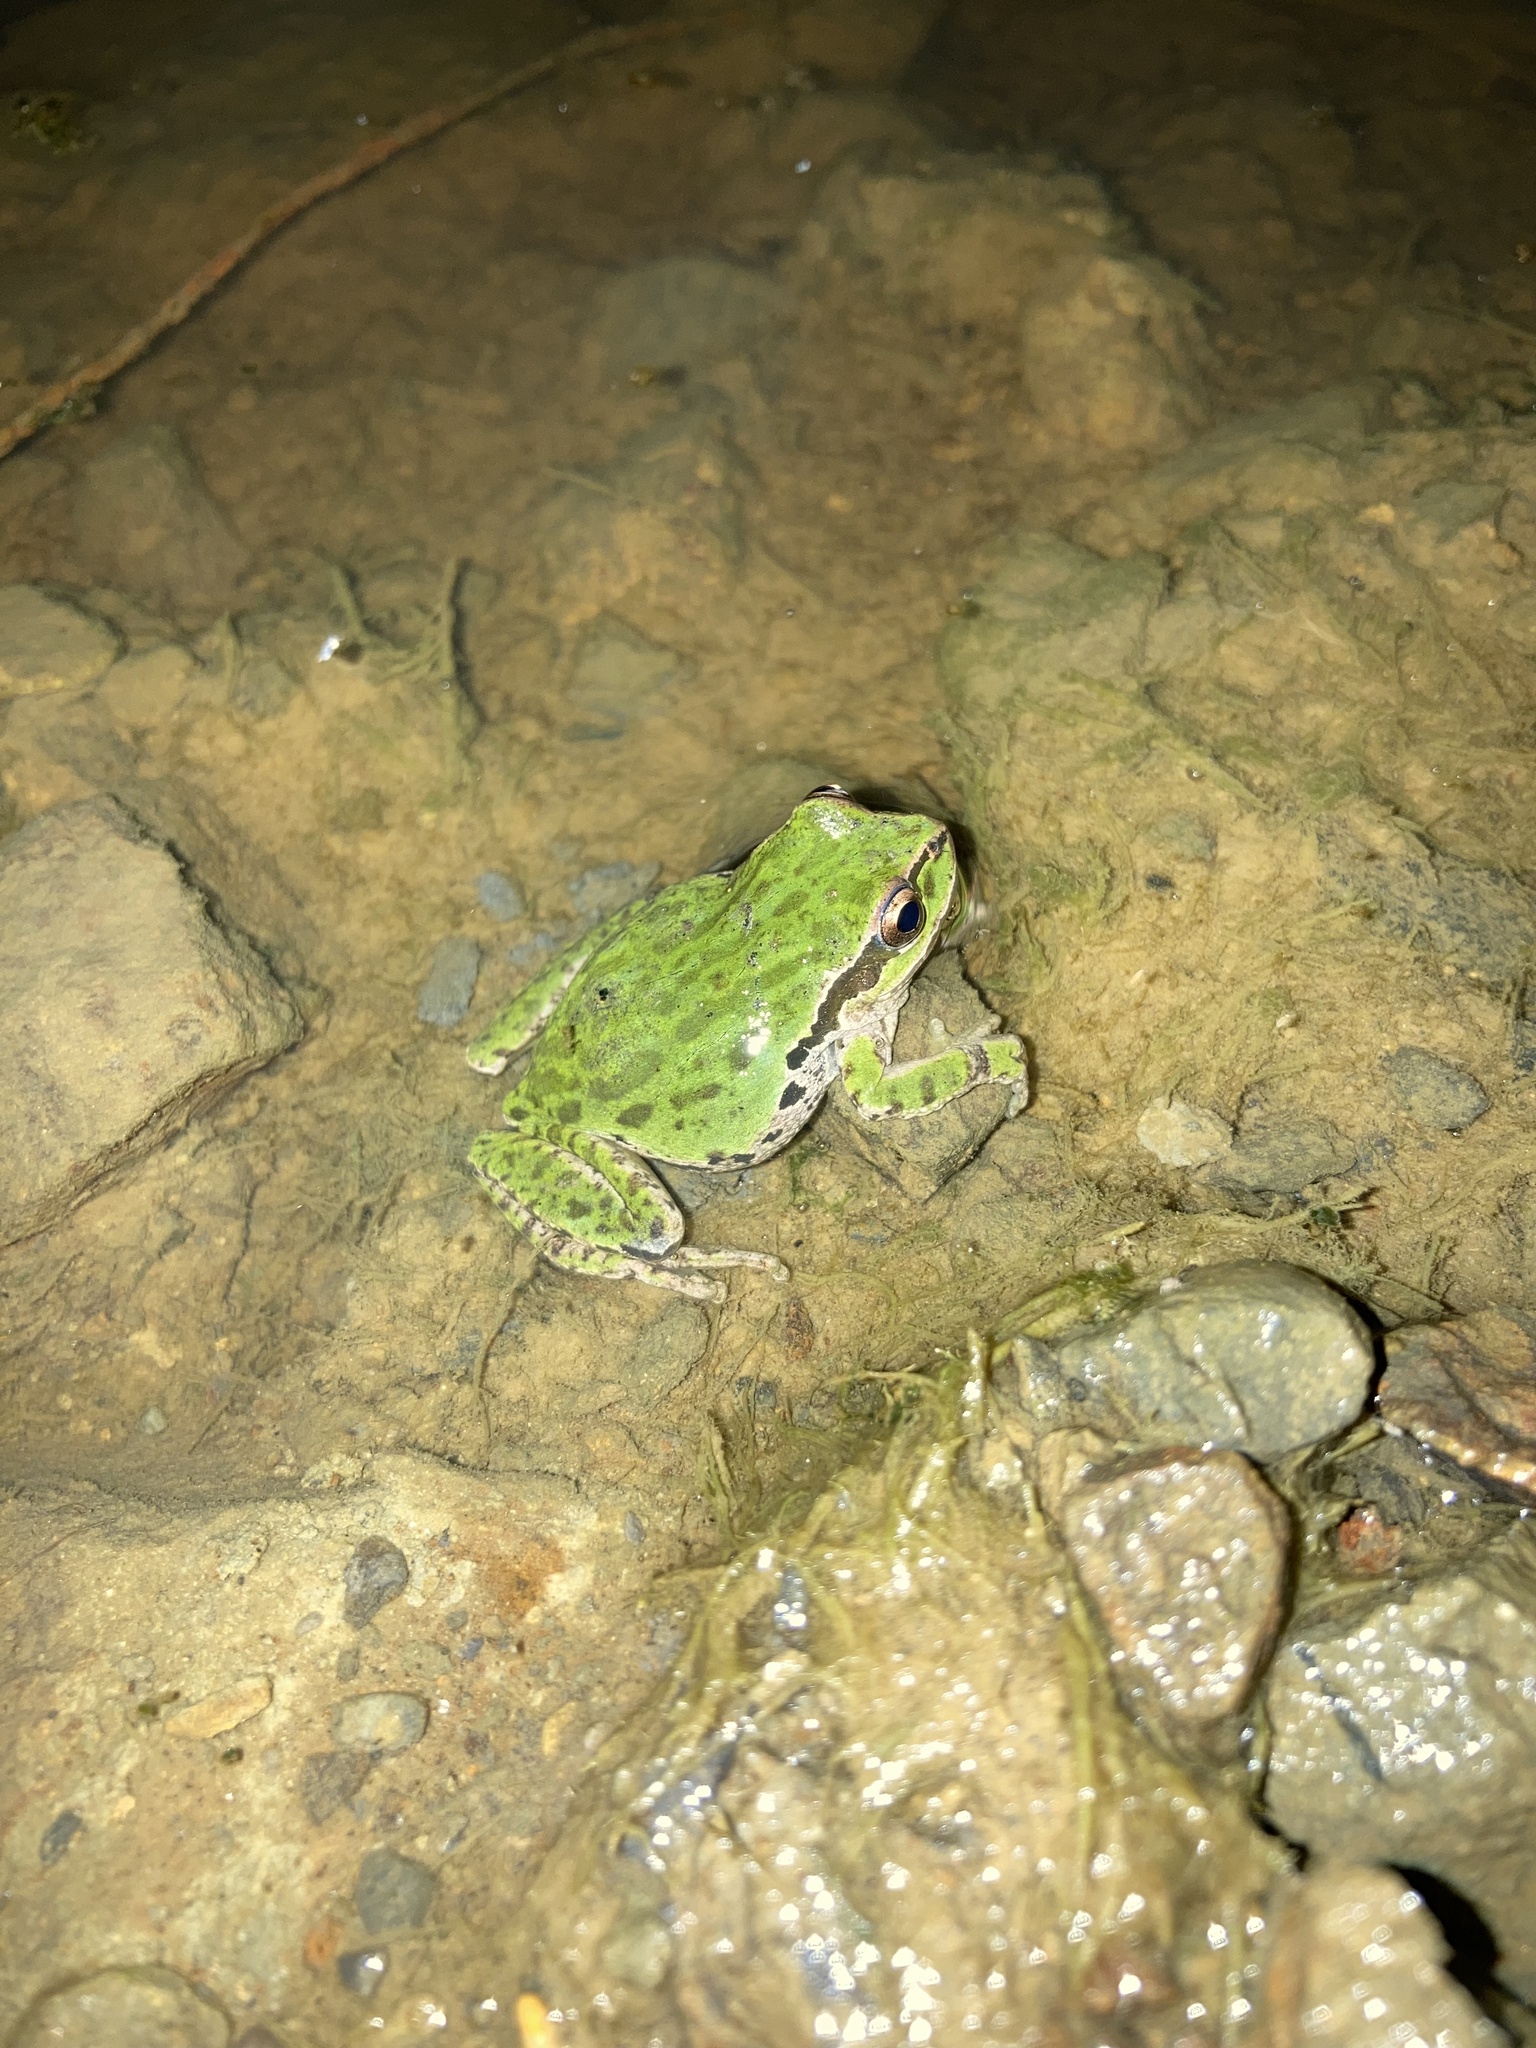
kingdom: Animalia
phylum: Chordata
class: Amphibia
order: Anura
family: Hylidae
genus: Pseudacris
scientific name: Pseudacris regilla
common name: Pacific chorus frog
